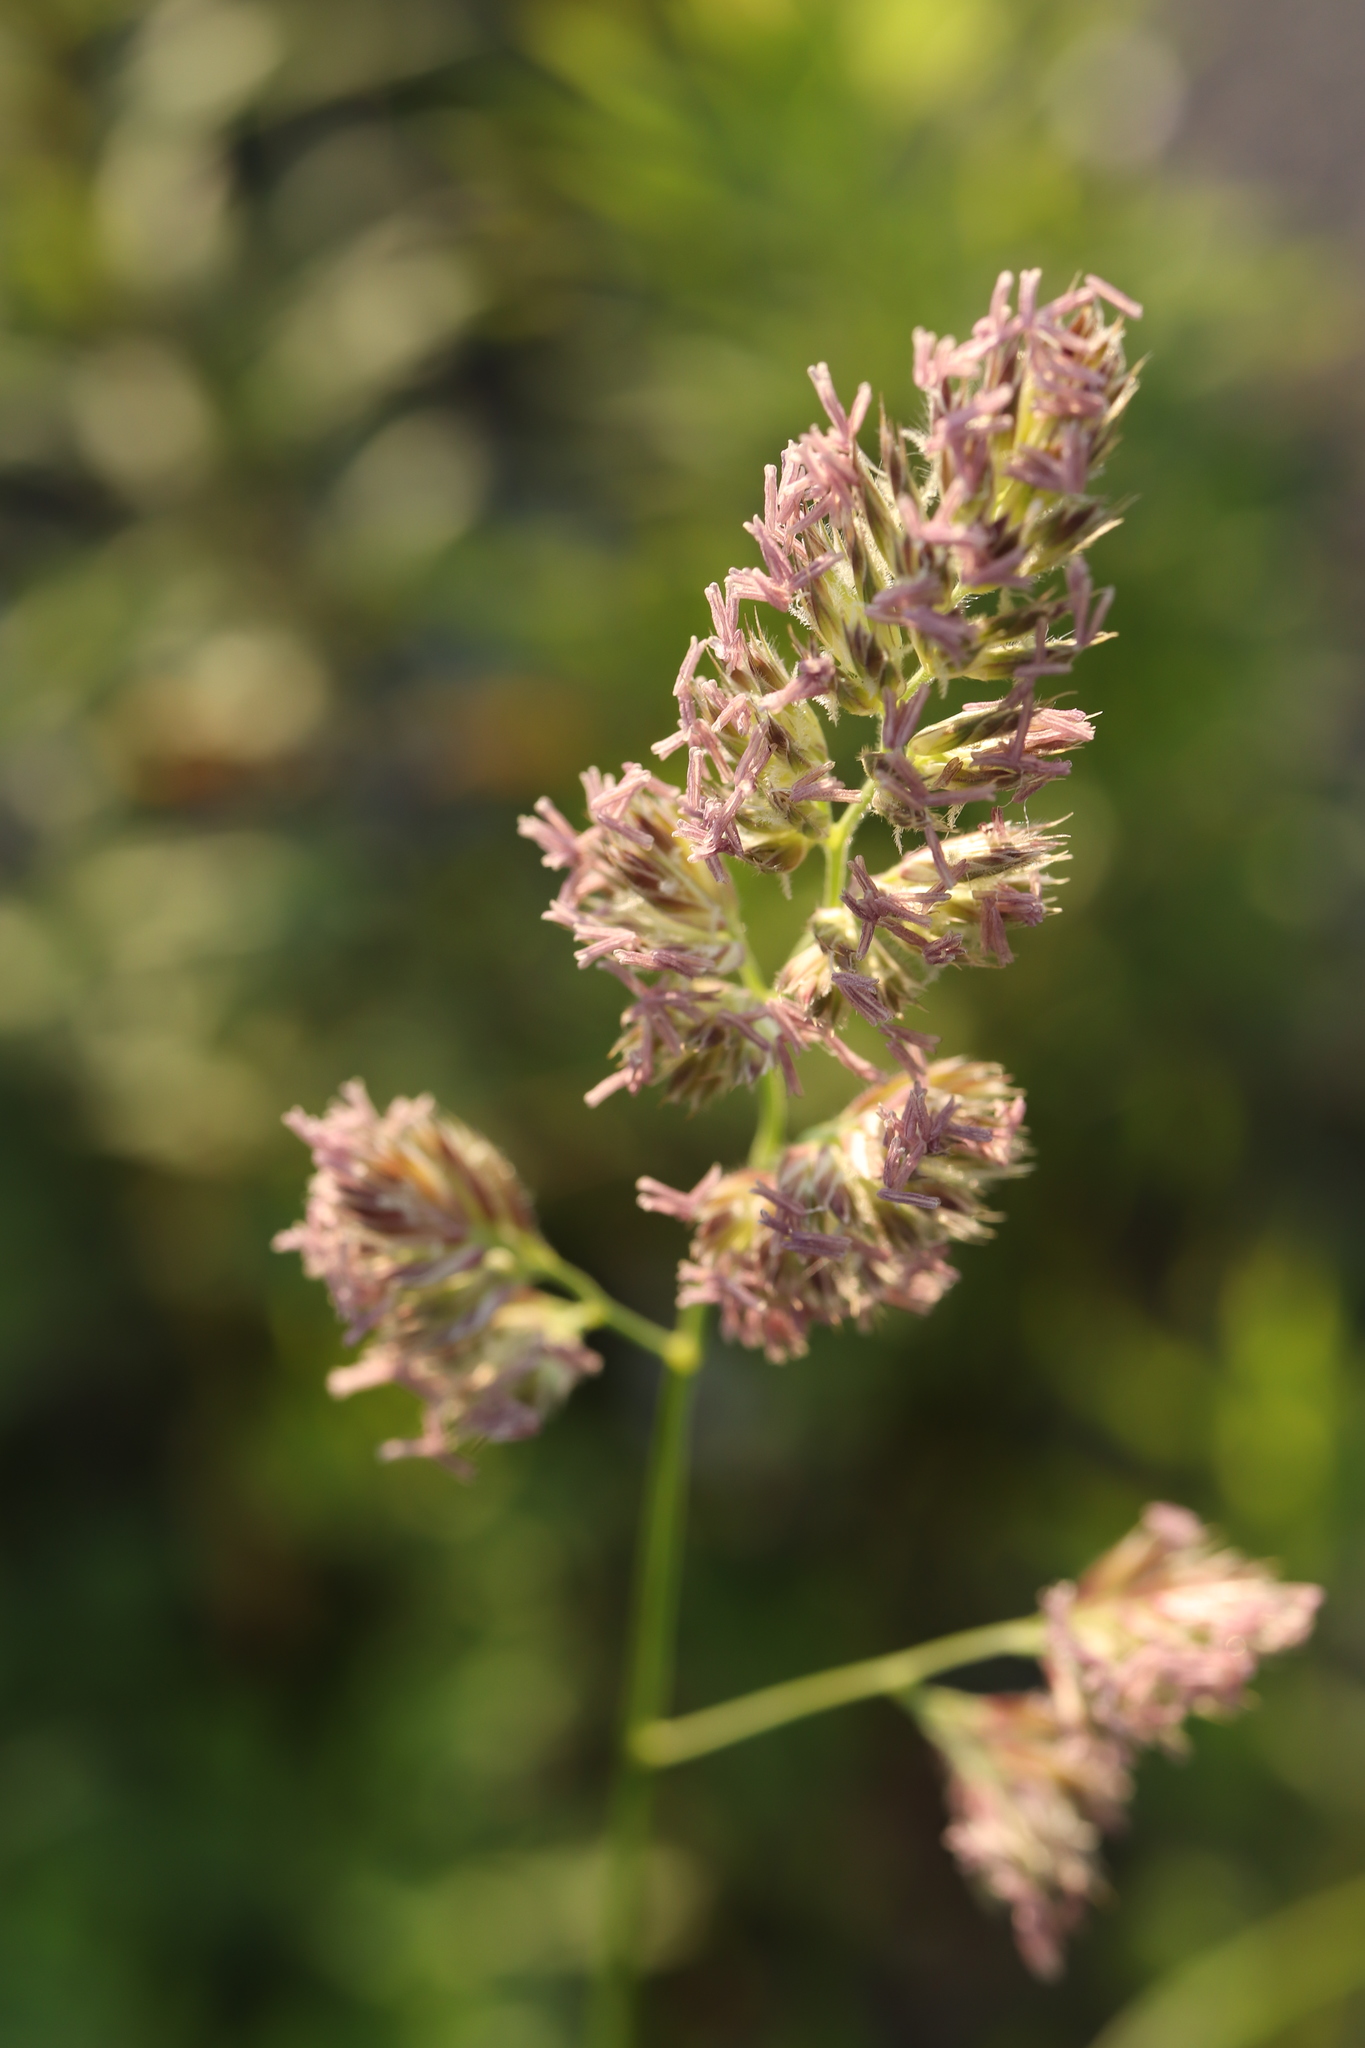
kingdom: Plantae
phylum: Tracheophyta
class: Liliopsida
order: Poales
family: Poaceae
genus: Dactylis
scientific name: Dactylis glomerata
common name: Orchardgrass
